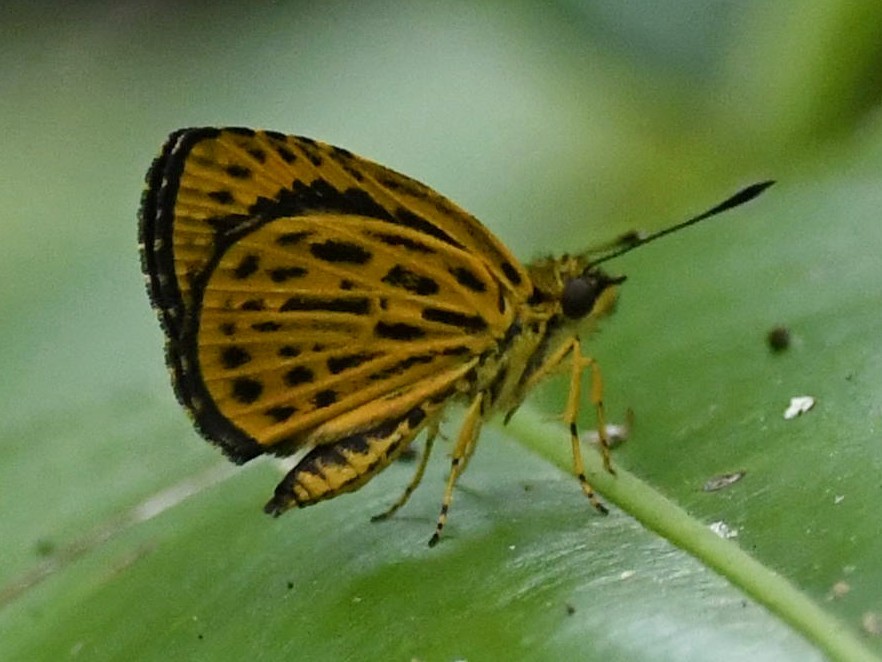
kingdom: Animalia
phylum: Arthropoda
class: Insecta
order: Lepidoptera
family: Hesperiidae
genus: Ampittia
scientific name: Ampittia subvittatus
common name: Tiger hopper
